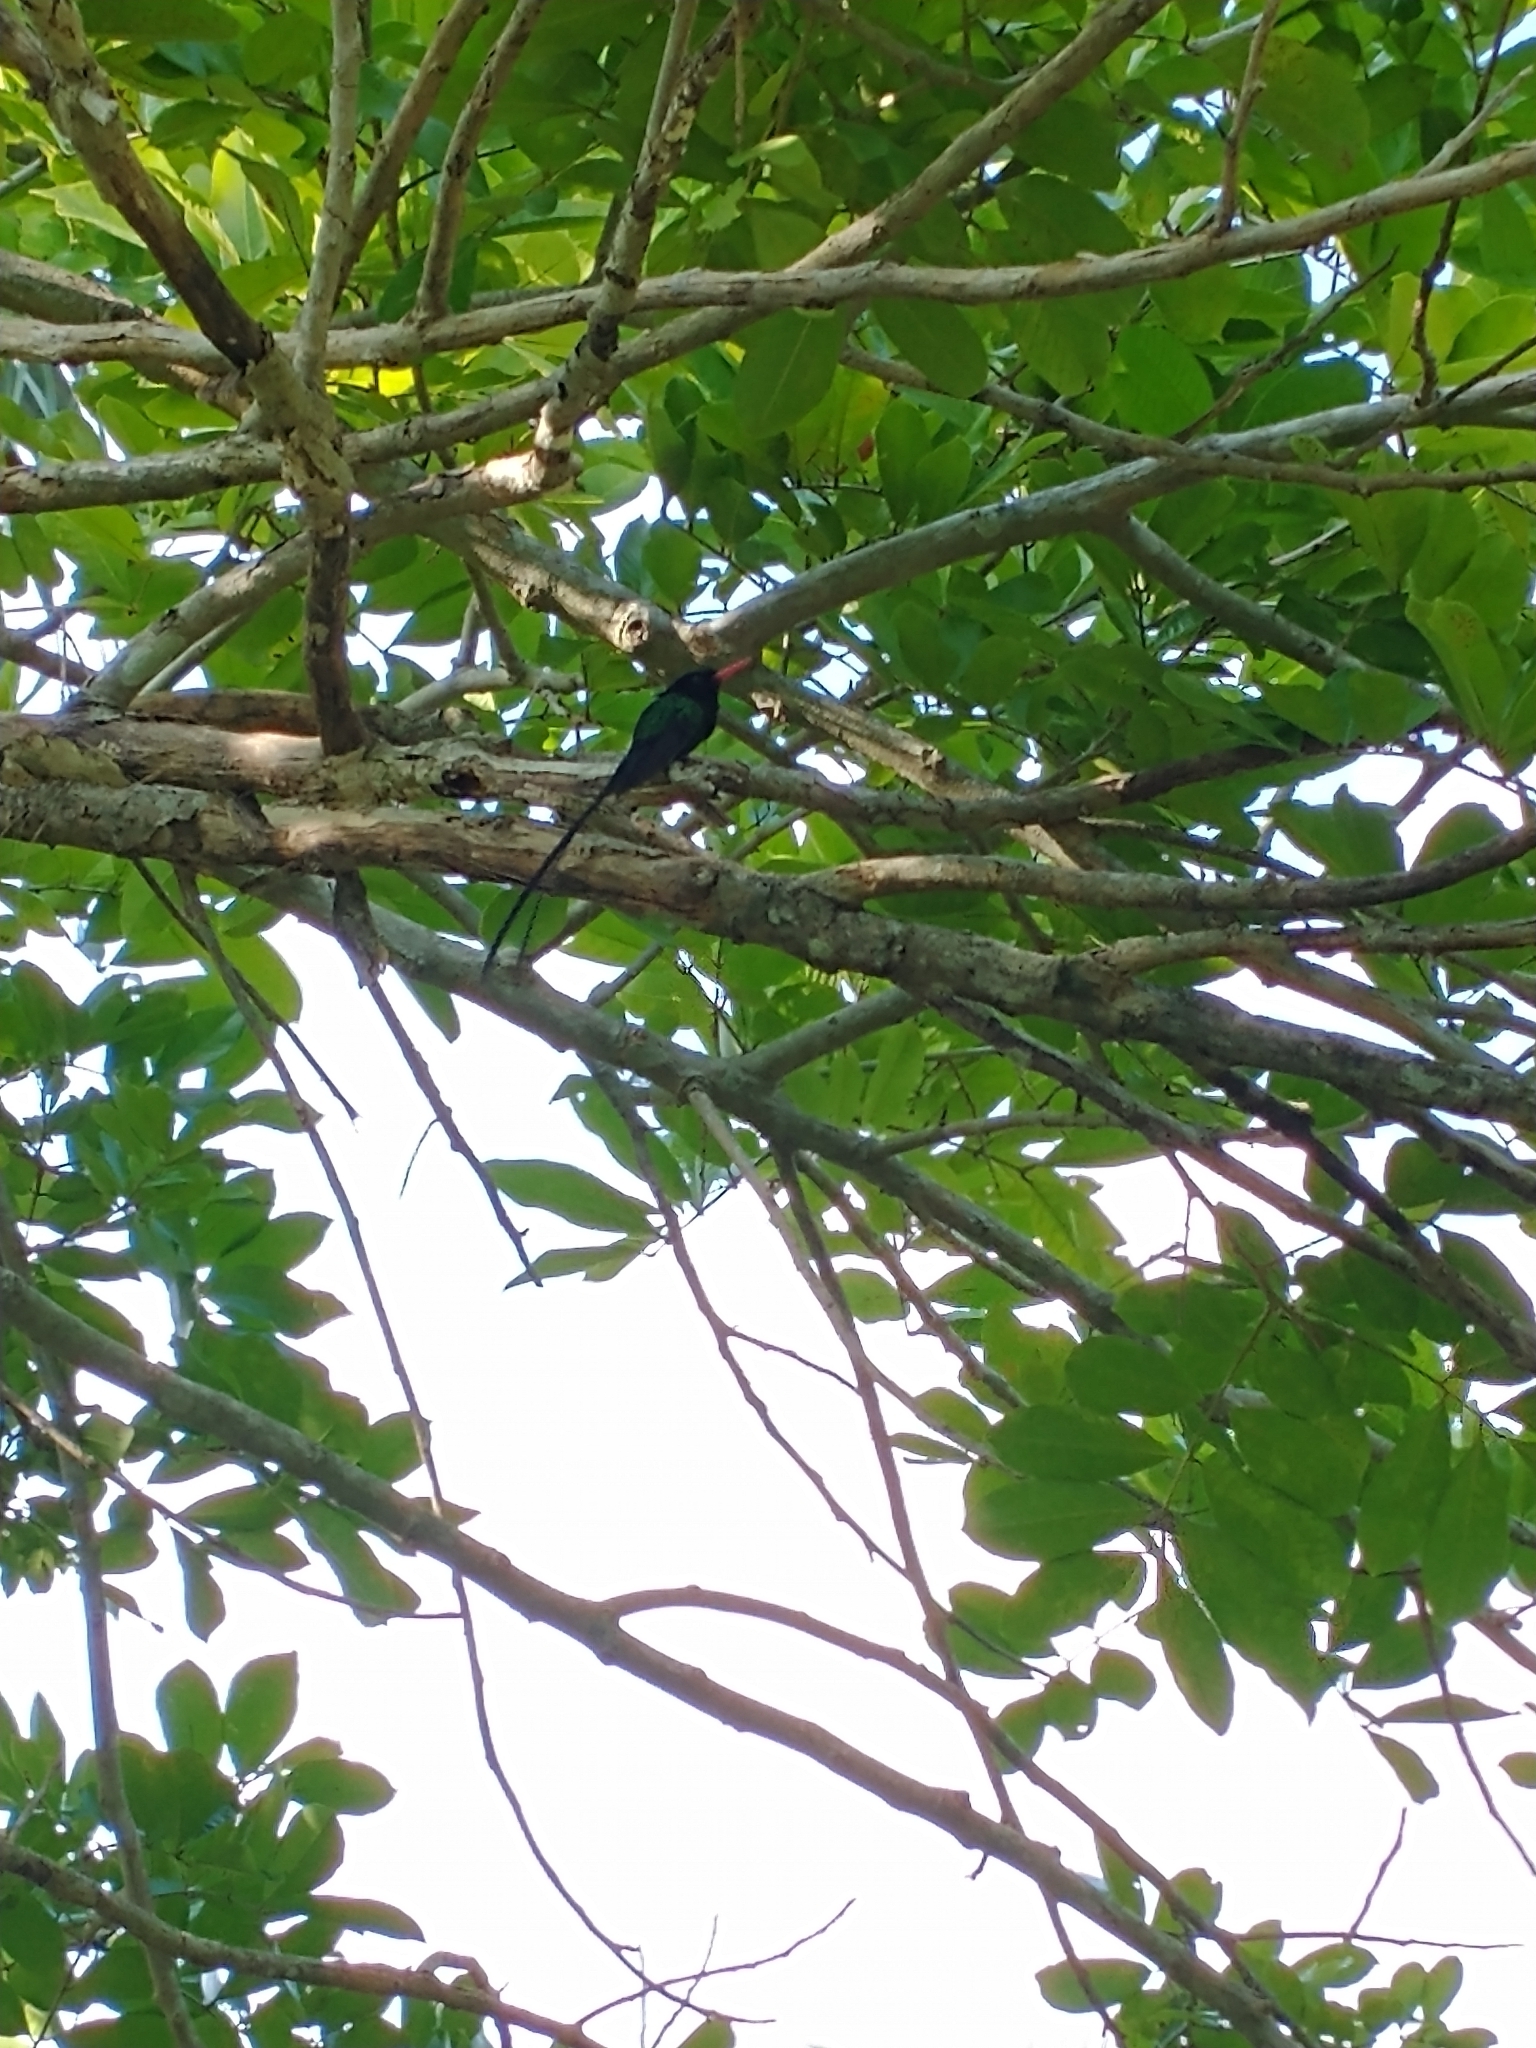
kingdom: Animalia
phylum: Chordata
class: Aves
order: Apodiformes
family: Trochilidae
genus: Trochilus
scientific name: Trochilus polytmus
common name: Red-billed streamertail
